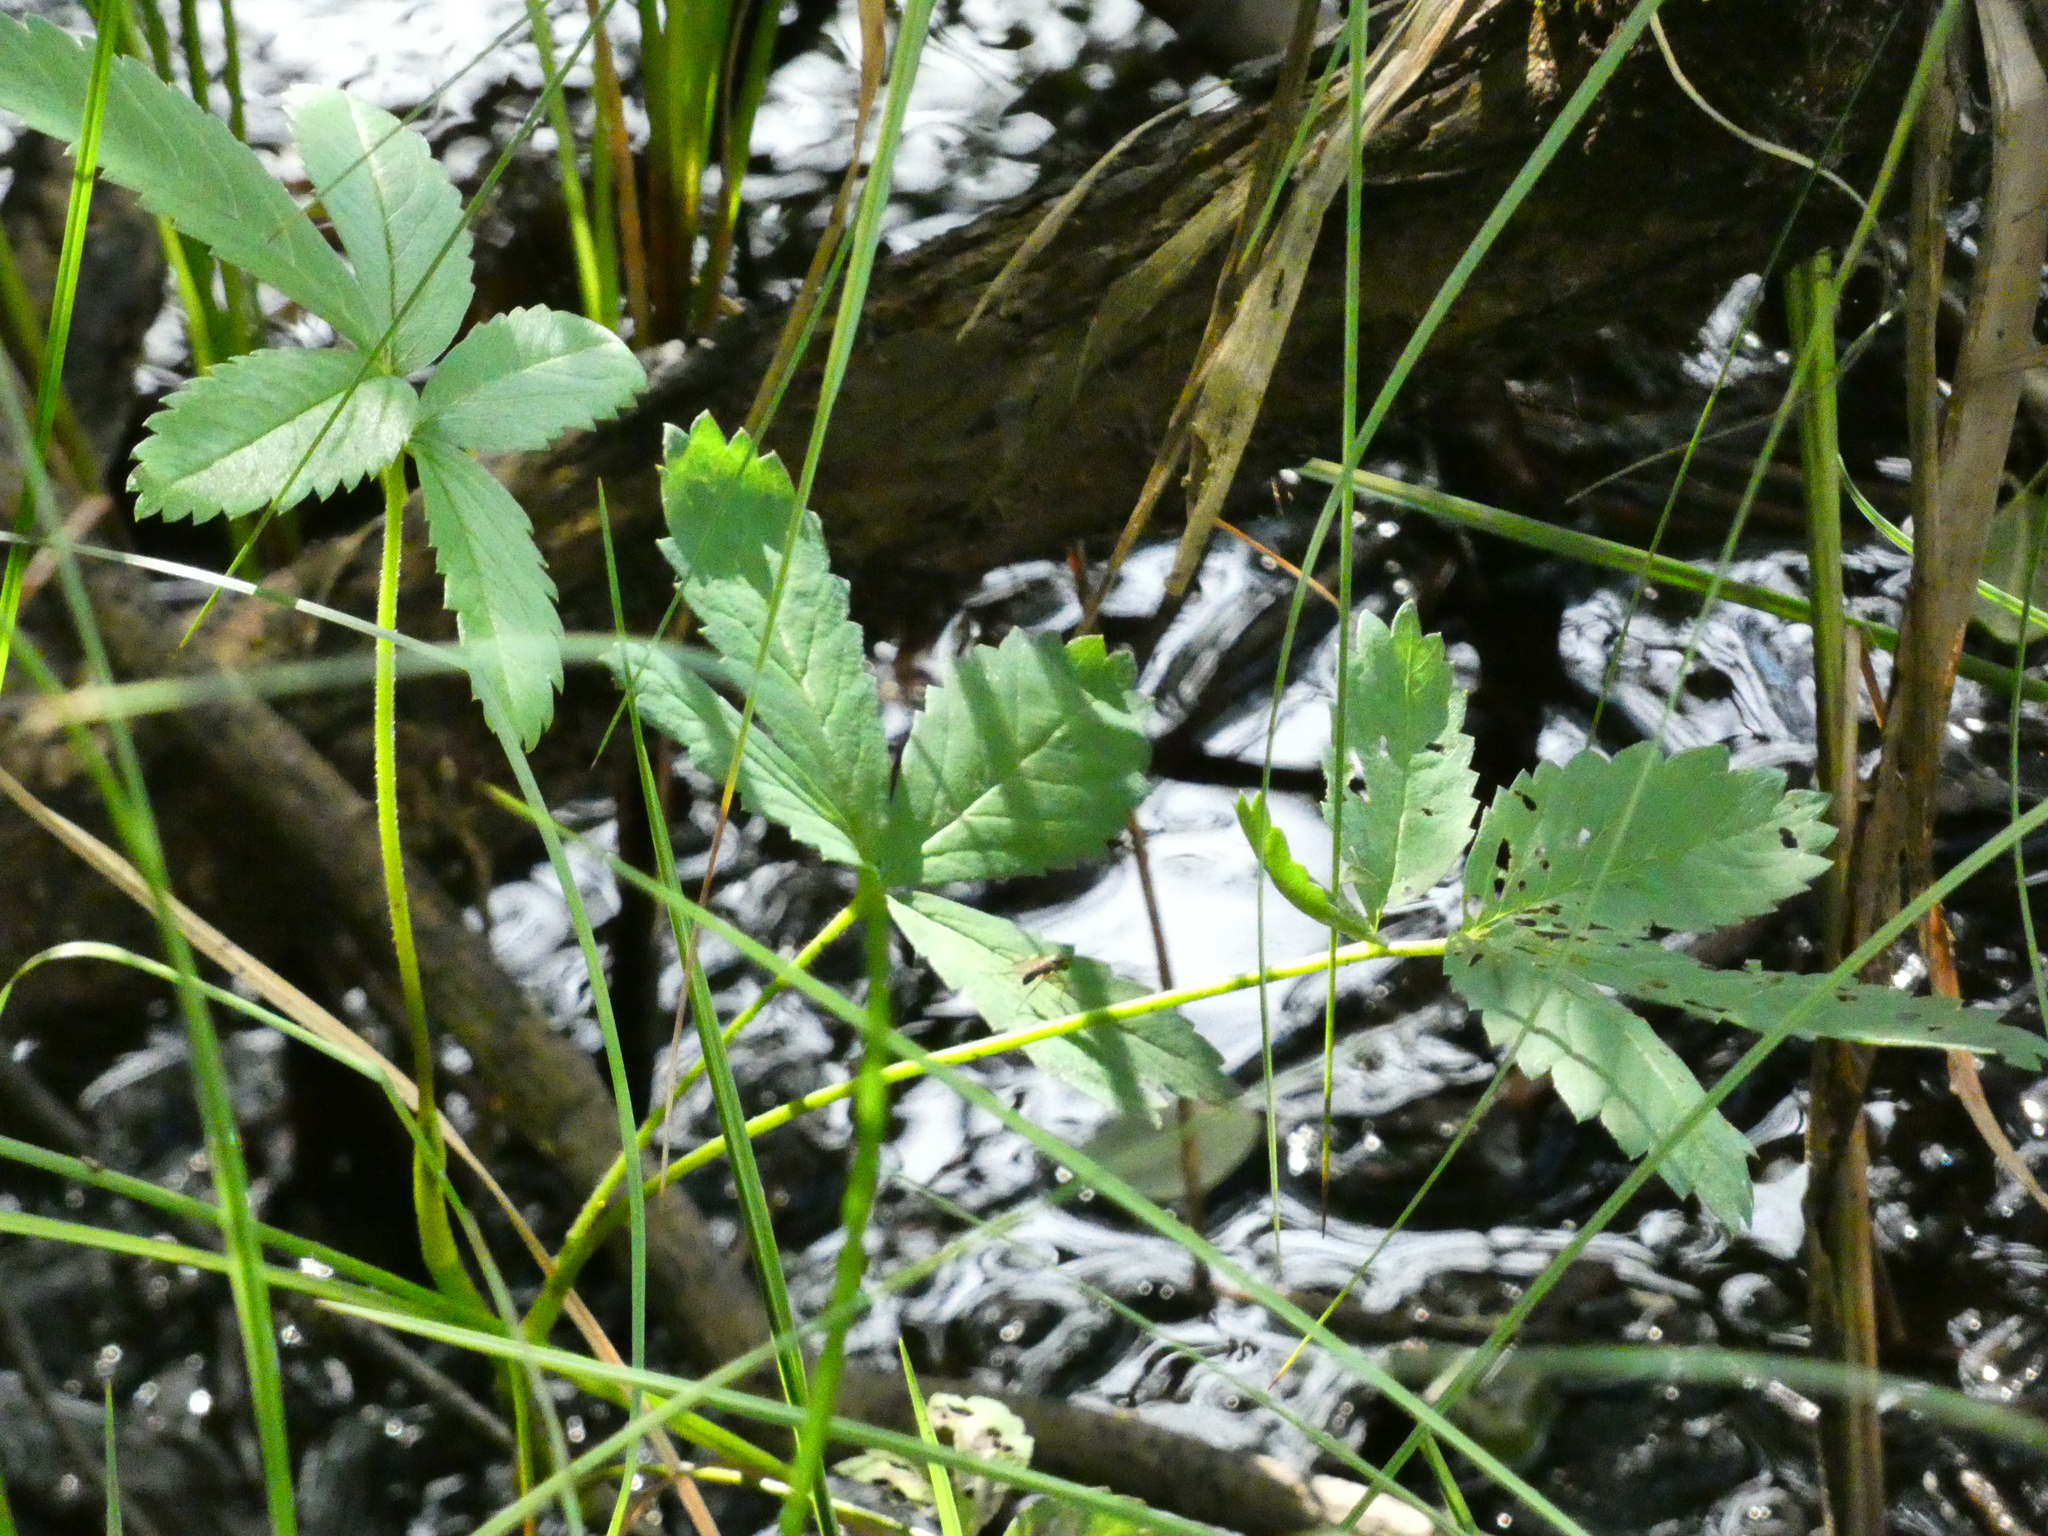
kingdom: Plantae
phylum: Tracheophyta
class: Magnoliopsida
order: Rosales
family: Rosaceae
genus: Comarum
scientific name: Comarum palustre
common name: Marsh cinquefoil
